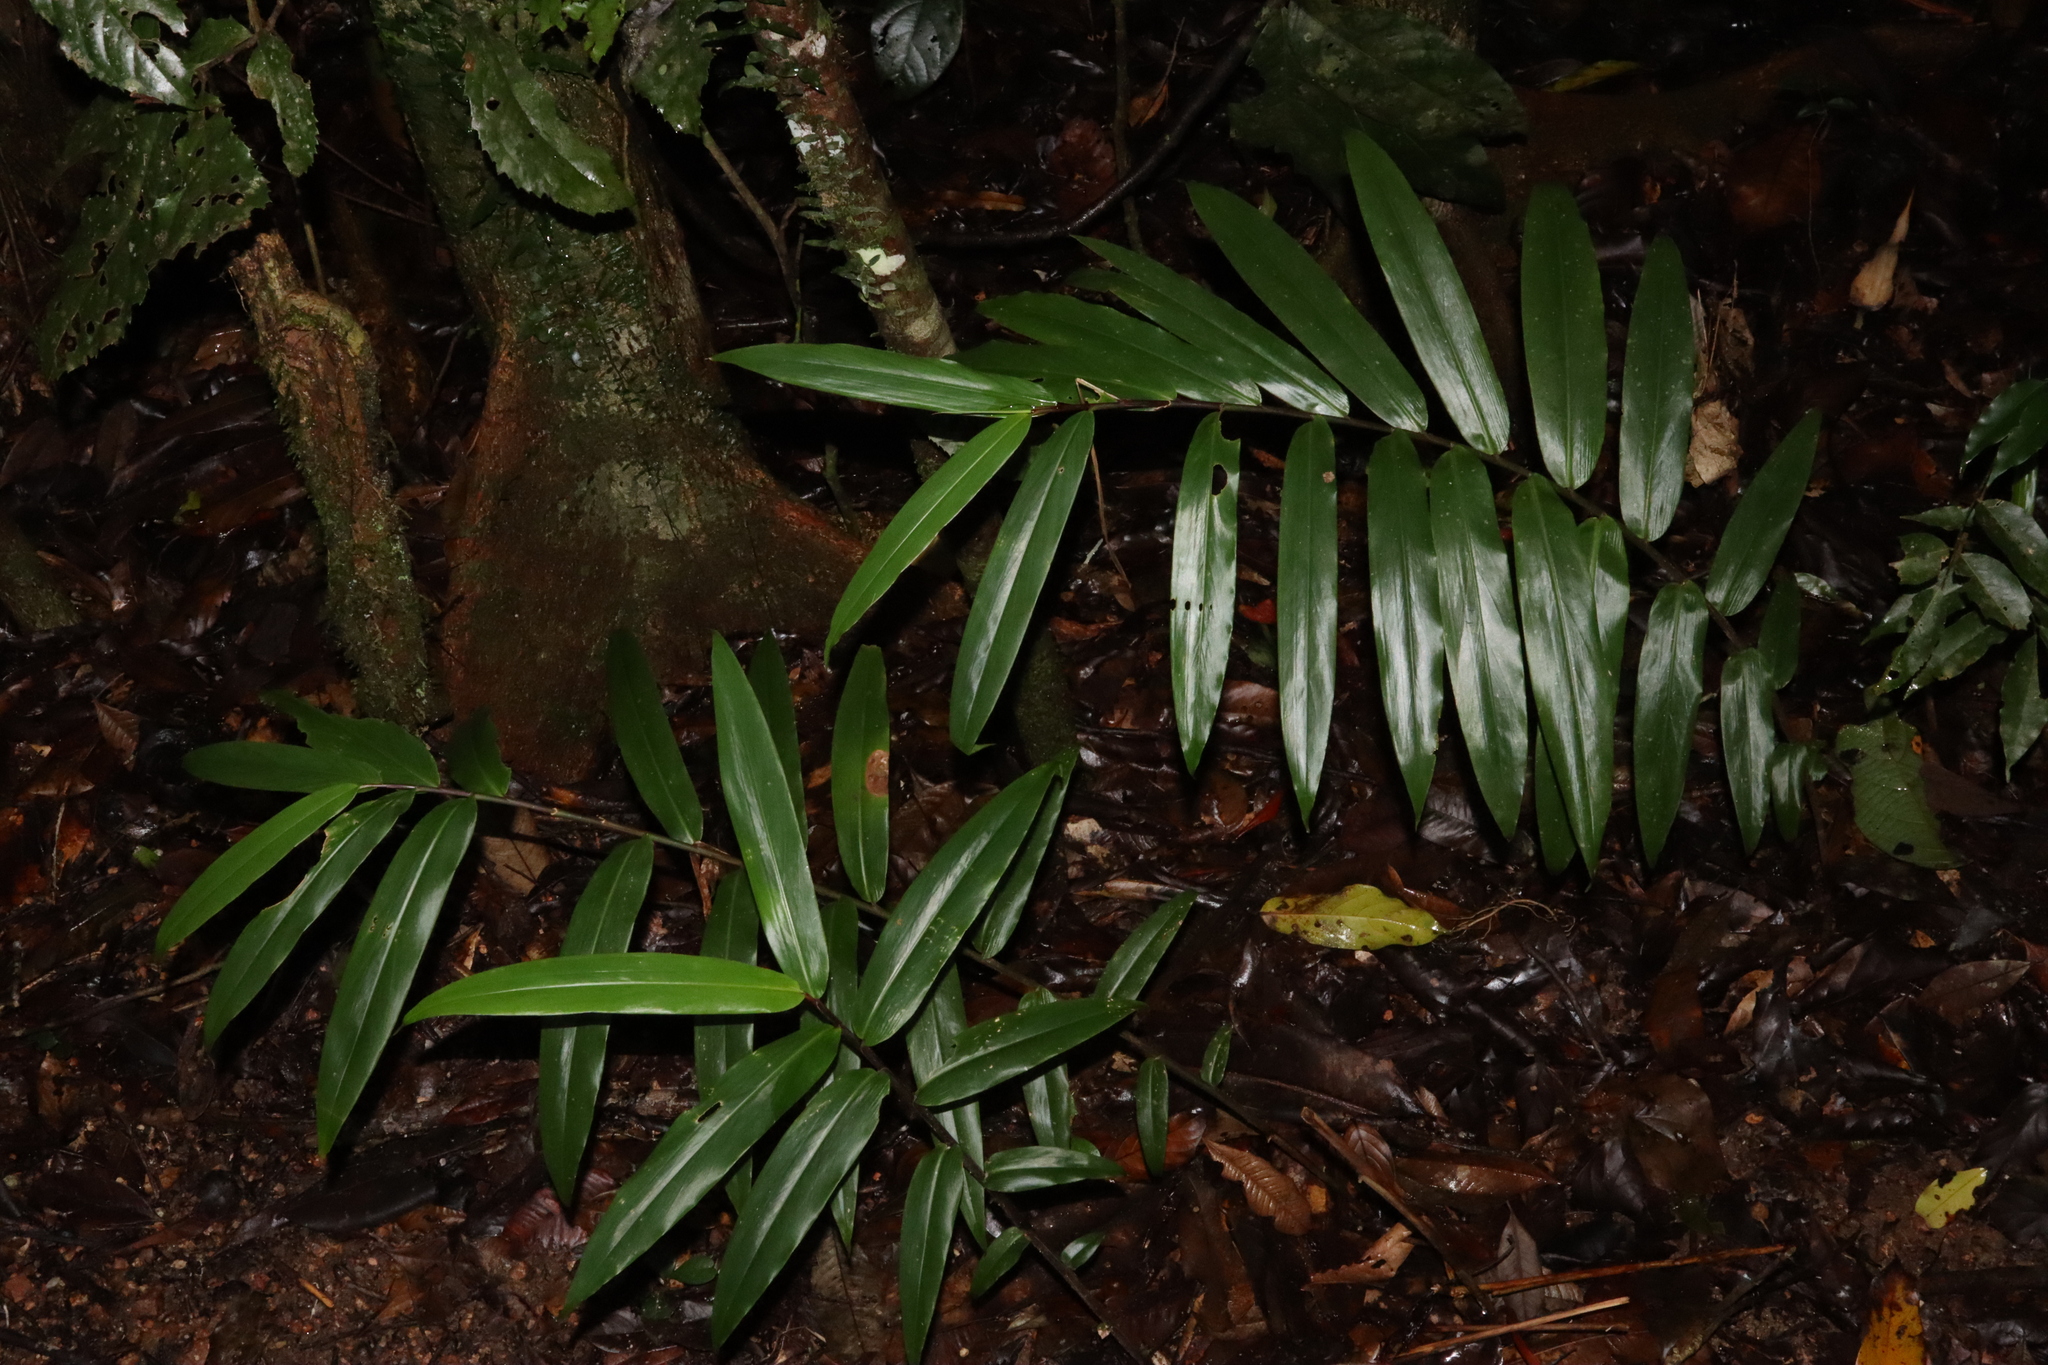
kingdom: Plantae
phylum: Tracheophyta
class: Liliopsida
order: Zingiberales
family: Zingiberaceae
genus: Alpinia
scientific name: Alpinia modesta
